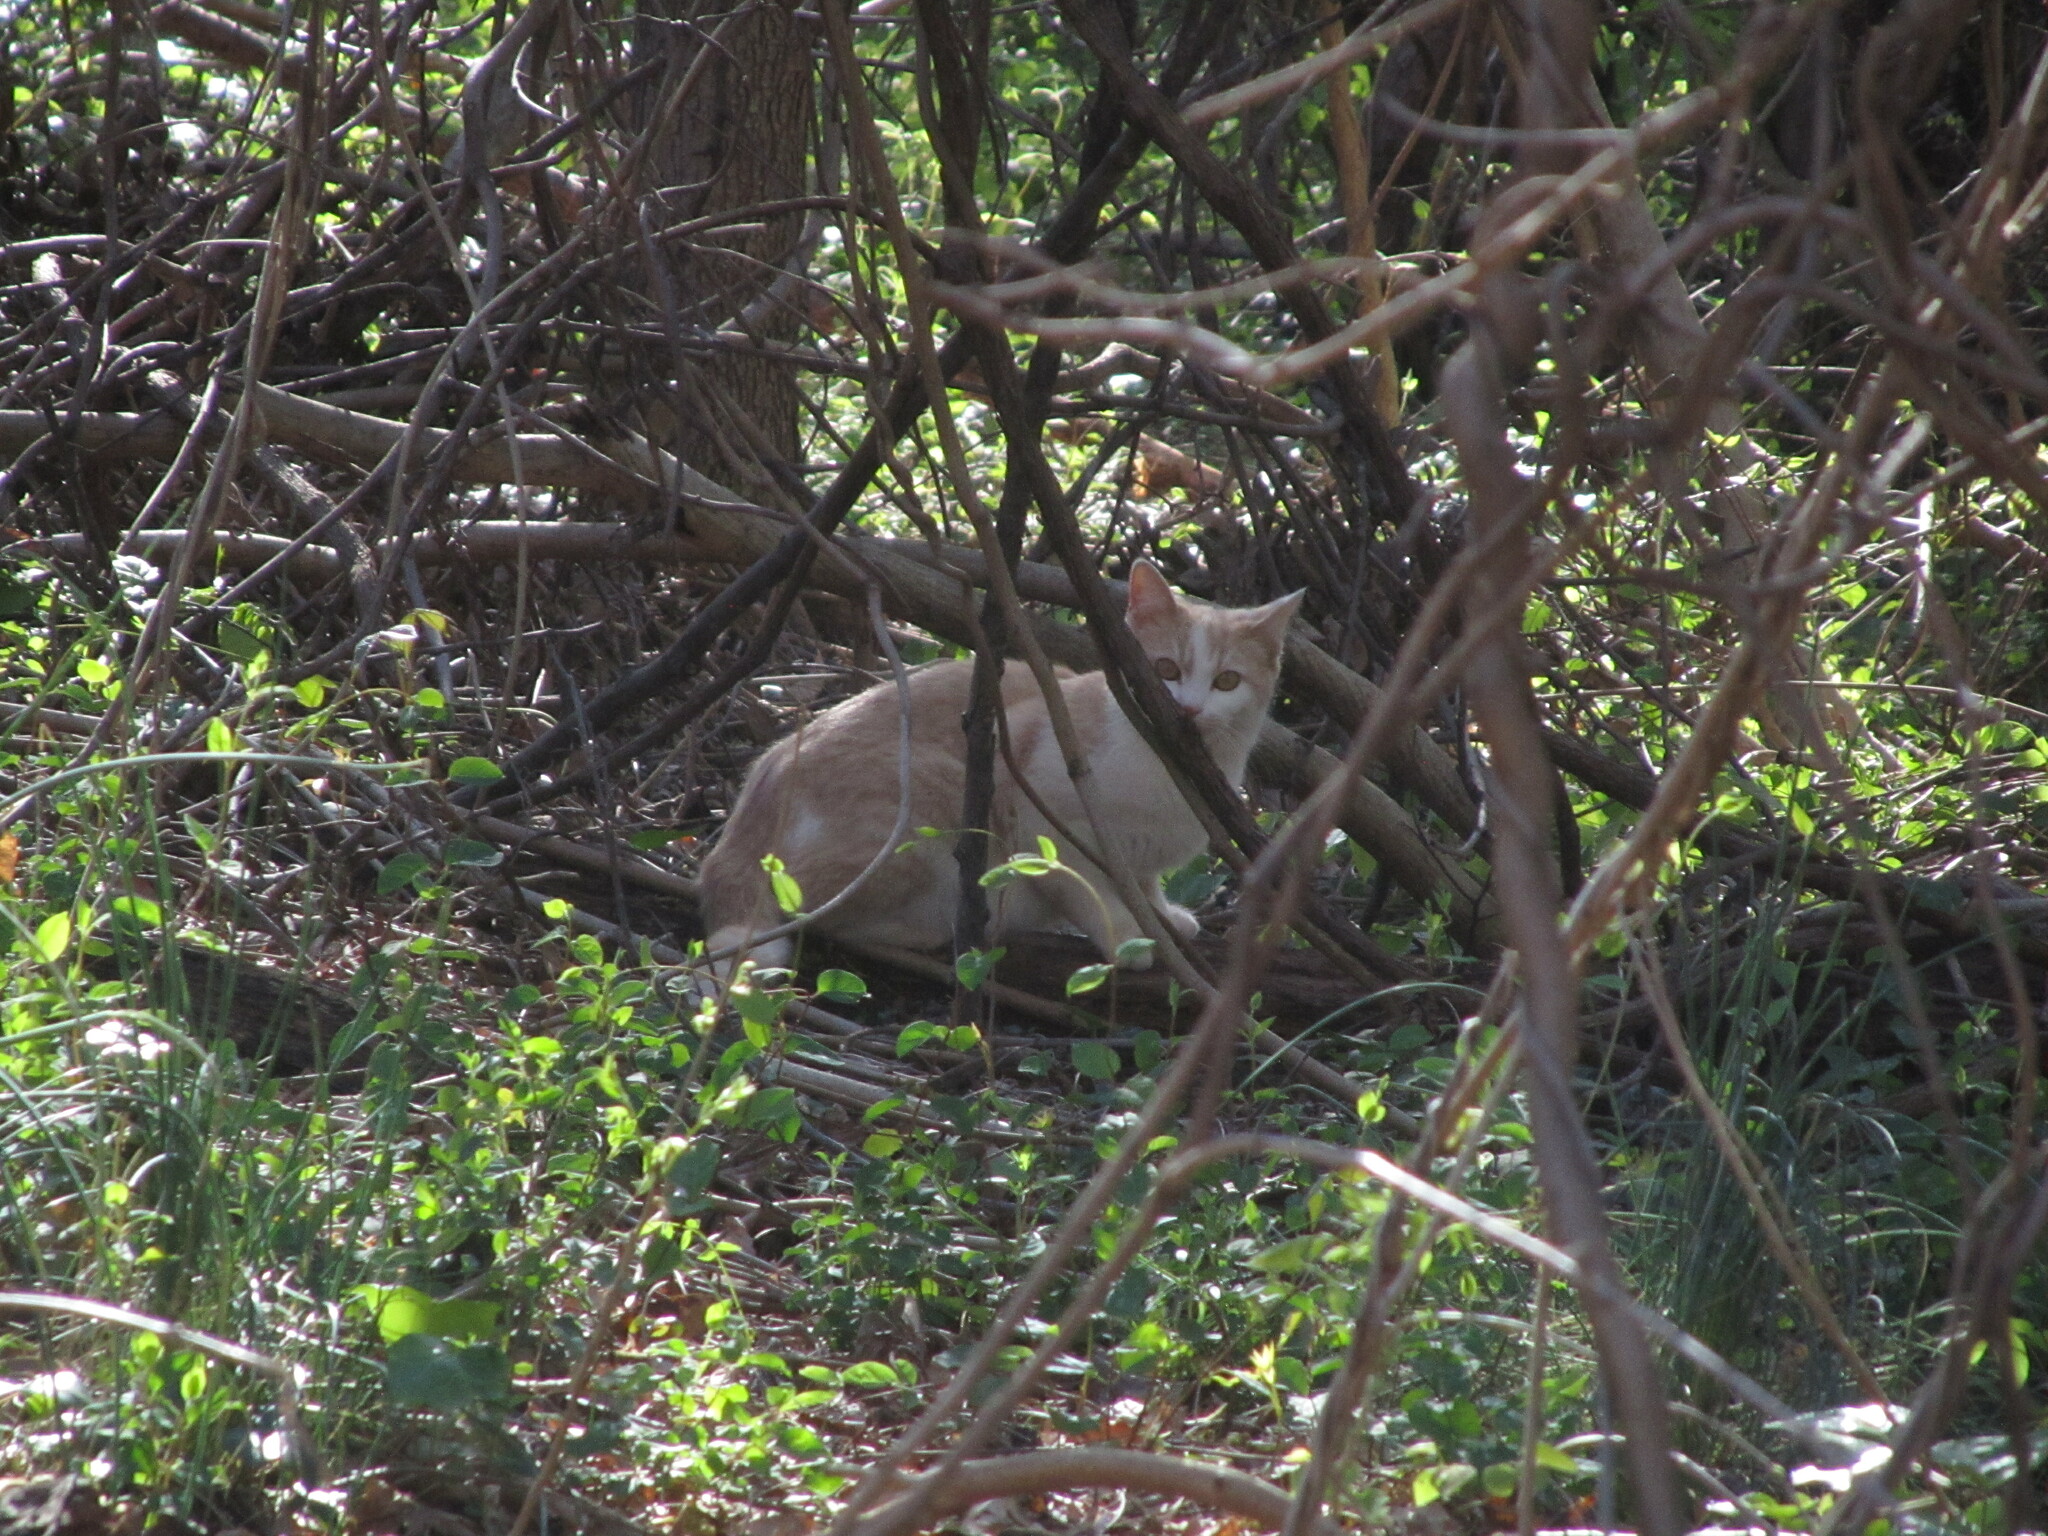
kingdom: Animalia
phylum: Chordata
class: Mammalia
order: Carnivora
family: Felidae
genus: Felis
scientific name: Felis catus
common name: Domestic cat
